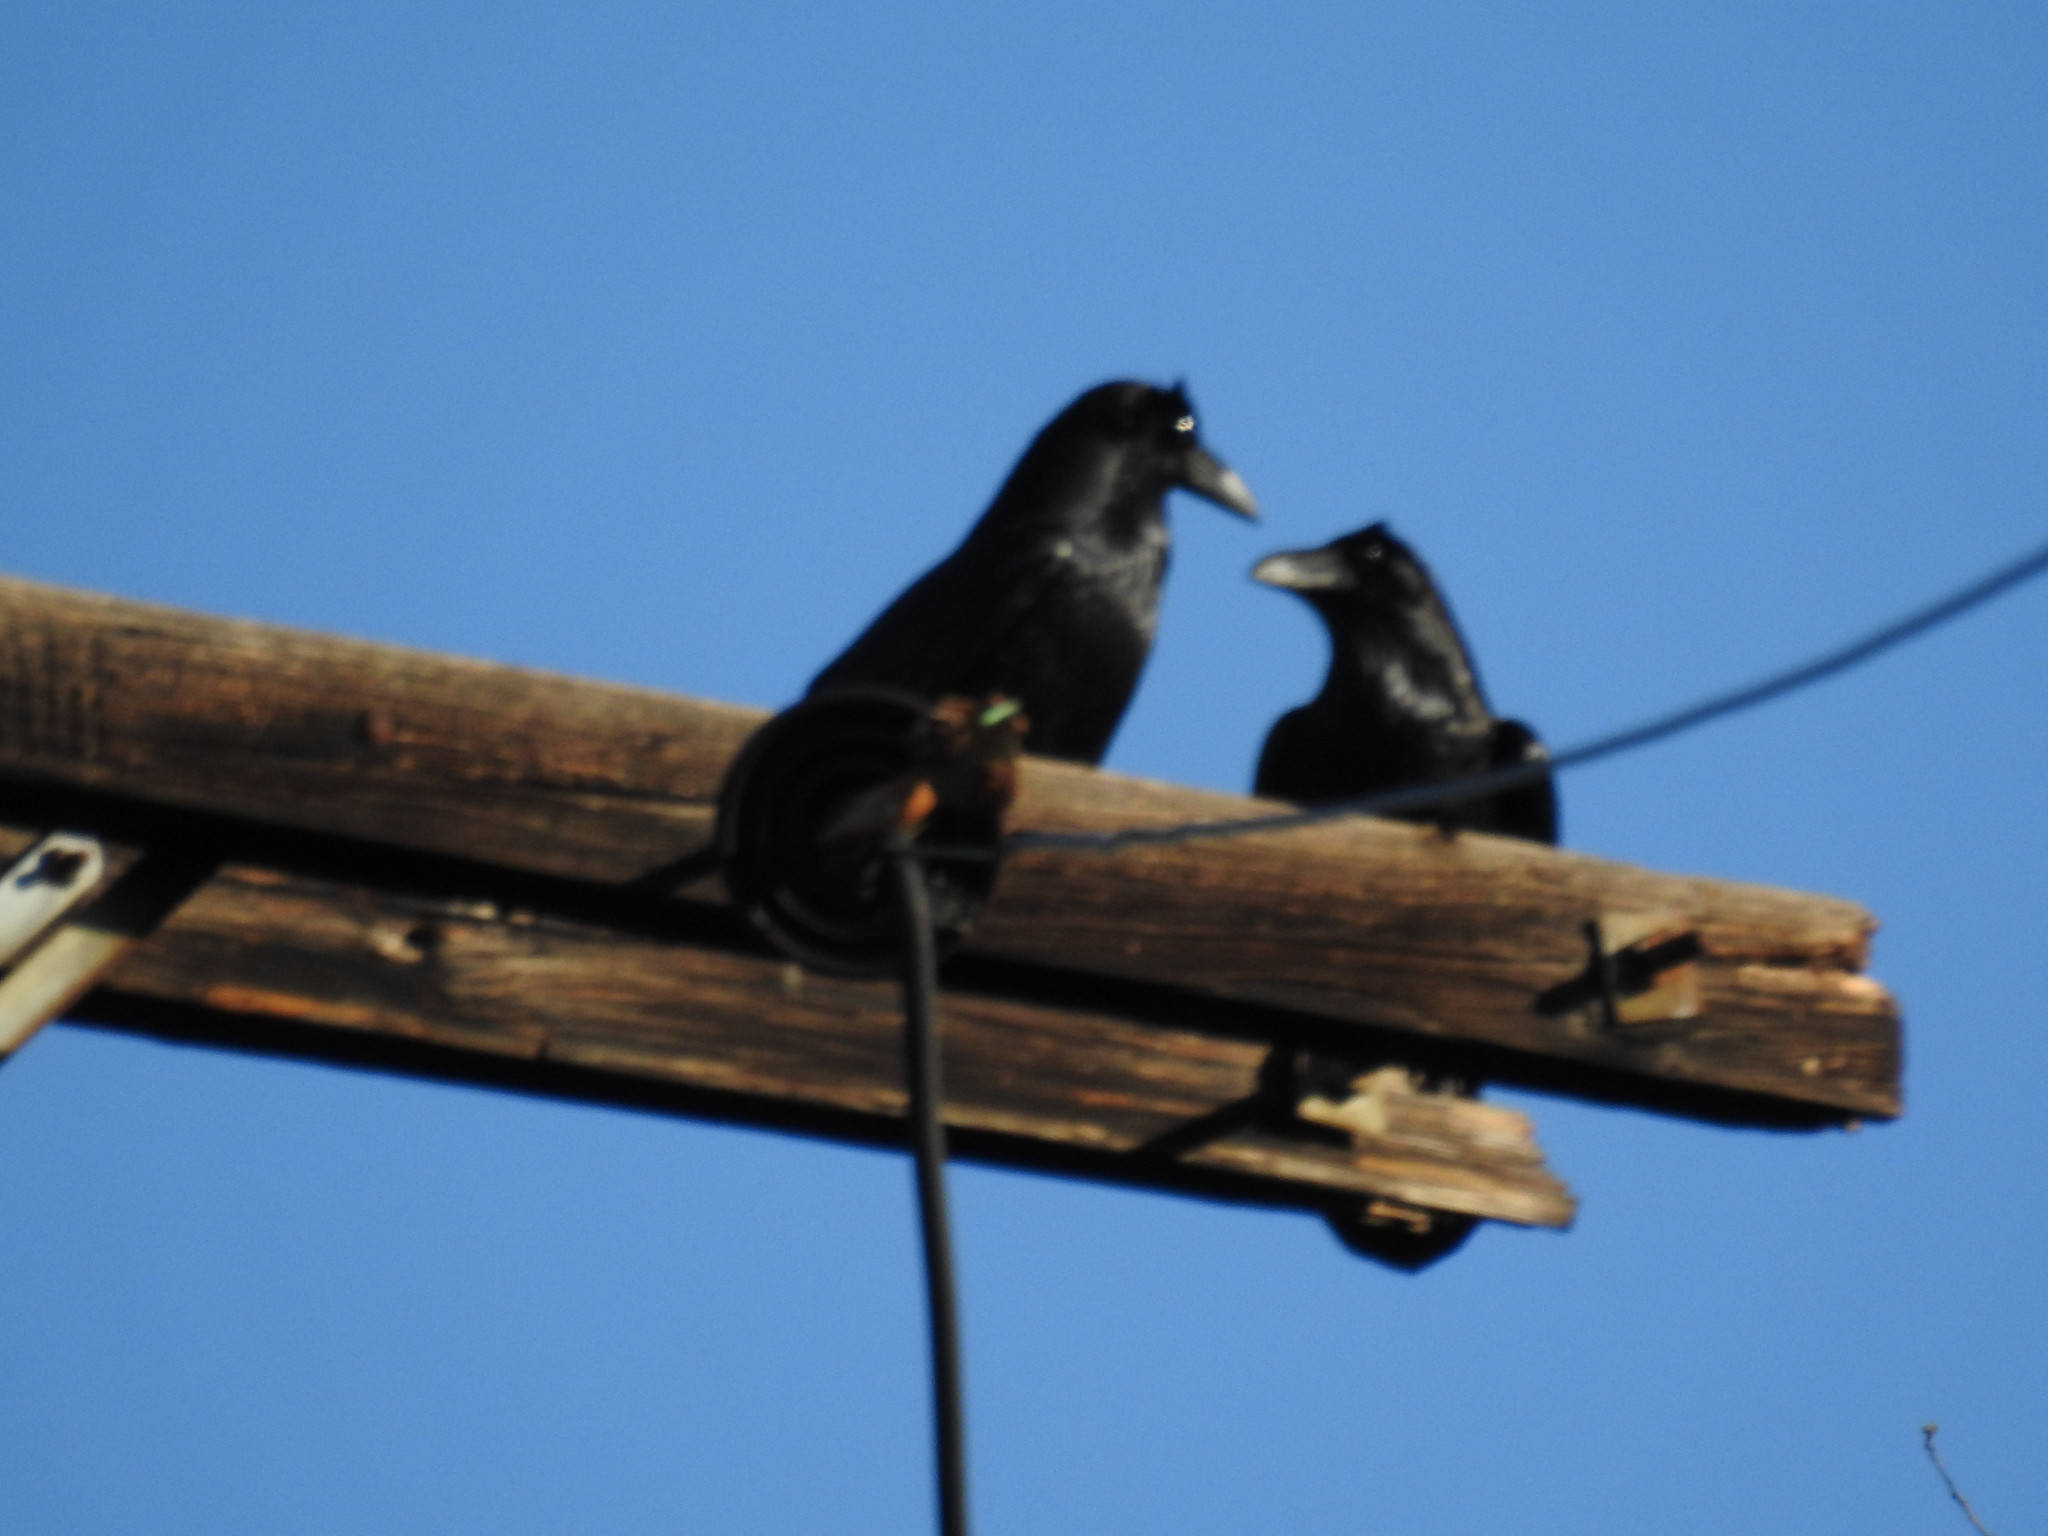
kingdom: Animalia
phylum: Chordata
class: Aves
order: Passeriformes
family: Corvidae
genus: Corvus
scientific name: Corvus corax
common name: Common raven
